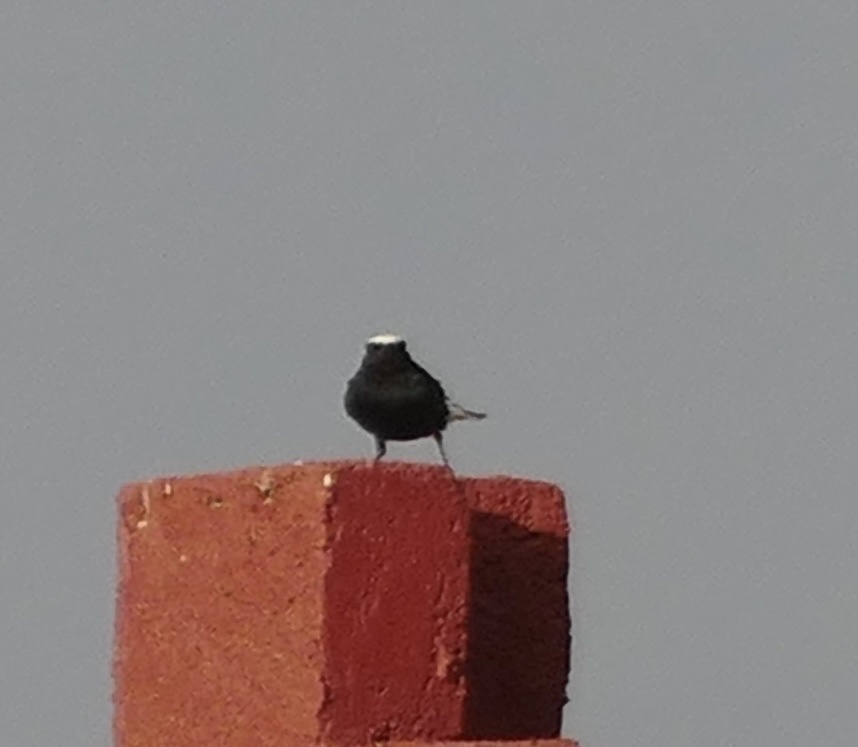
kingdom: Animalia
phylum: Chordata
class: Aves
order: Passeriformes
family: Muscicapidae
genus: Oenanthe
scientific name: Oenanthe leucopyga
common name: White-crowned wheatear
